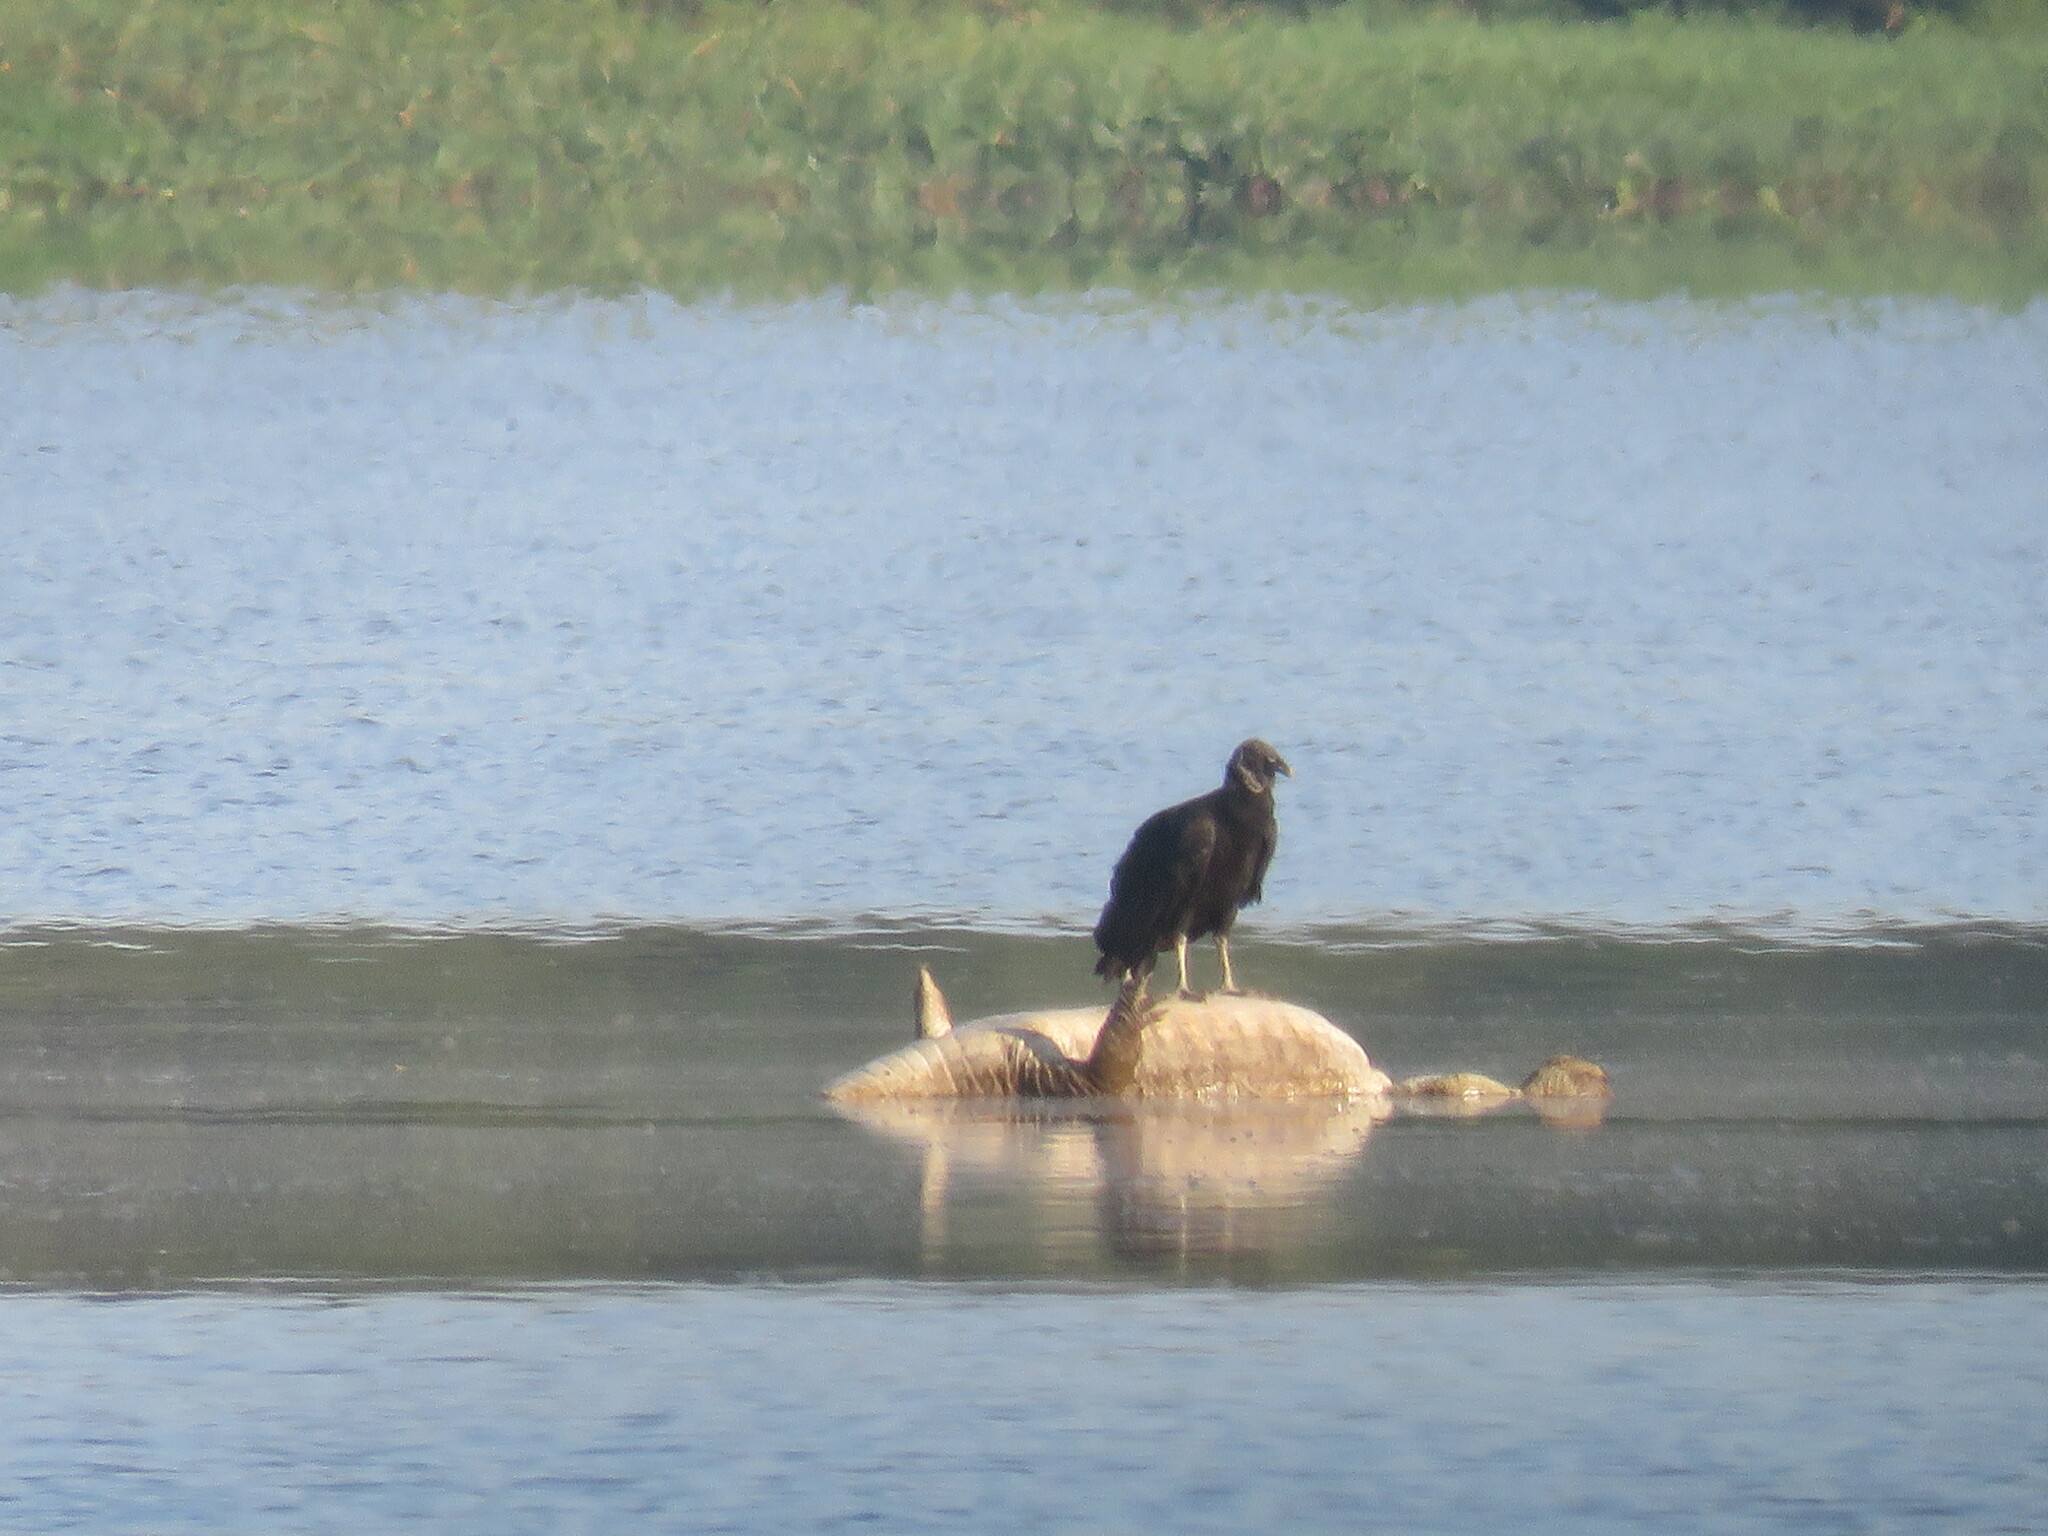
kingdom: Animalia
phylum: Chordata
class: Crocodylia
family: Alligatoridae
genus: Caiman
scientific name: Caiman yacare
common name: Yacare caiman
